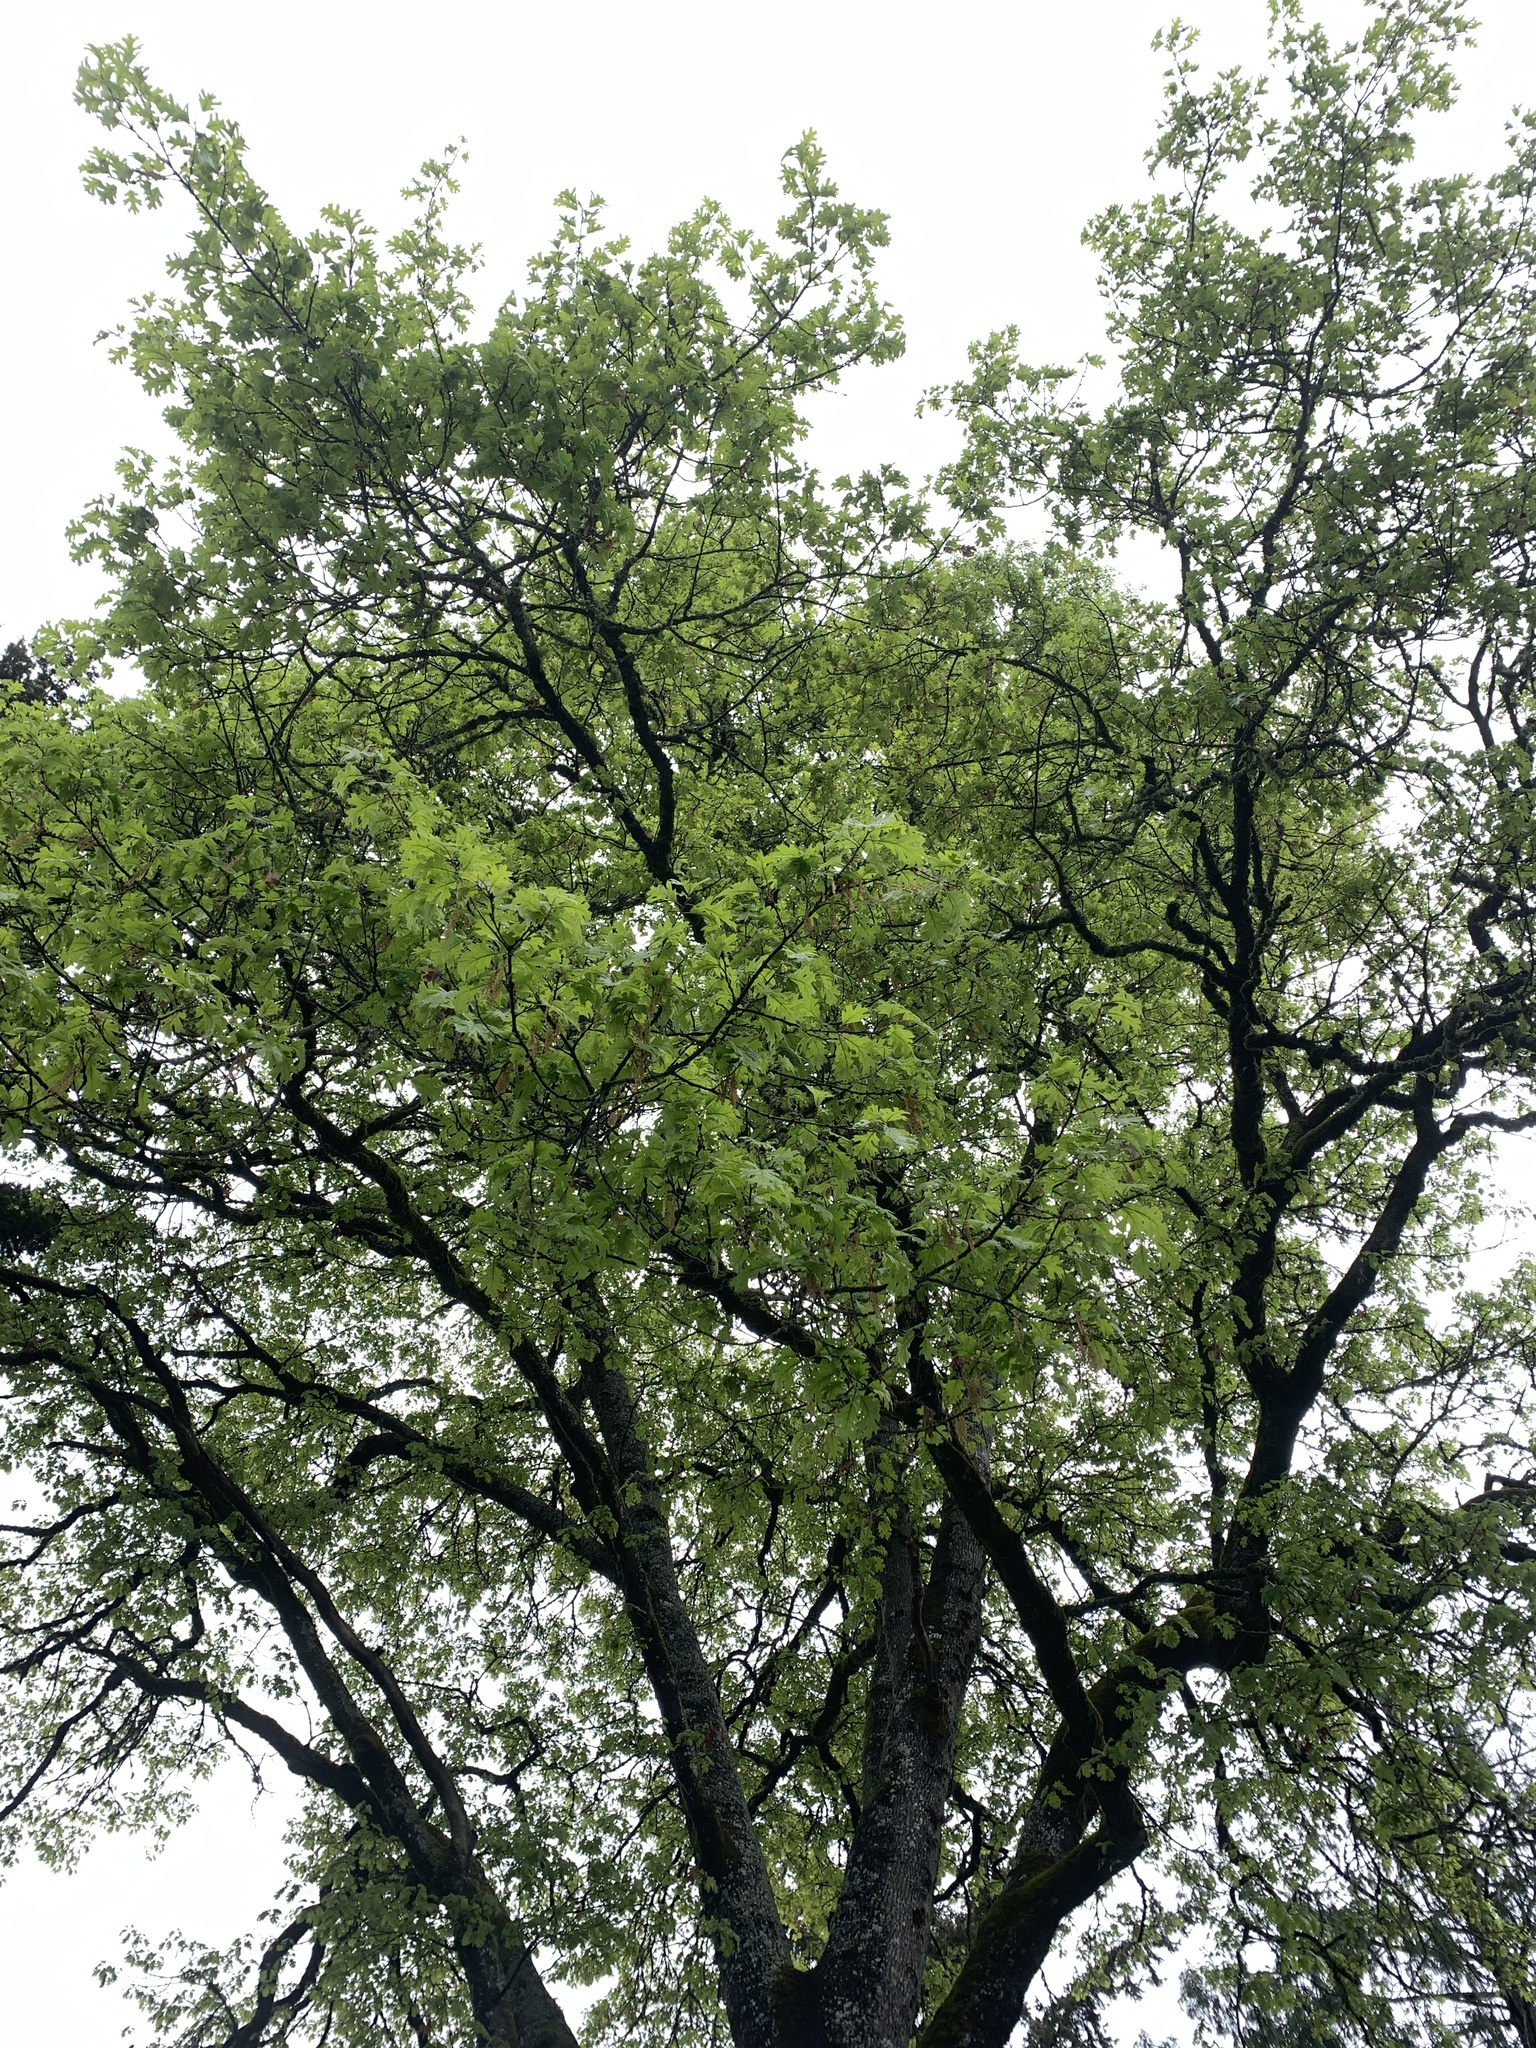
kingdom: Plantae
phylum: Tracheophyta
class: Magnoliopsida
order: Fagales
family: Fagaceae
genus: Quercus
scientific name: Quercus kelloggii
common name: California black oak
